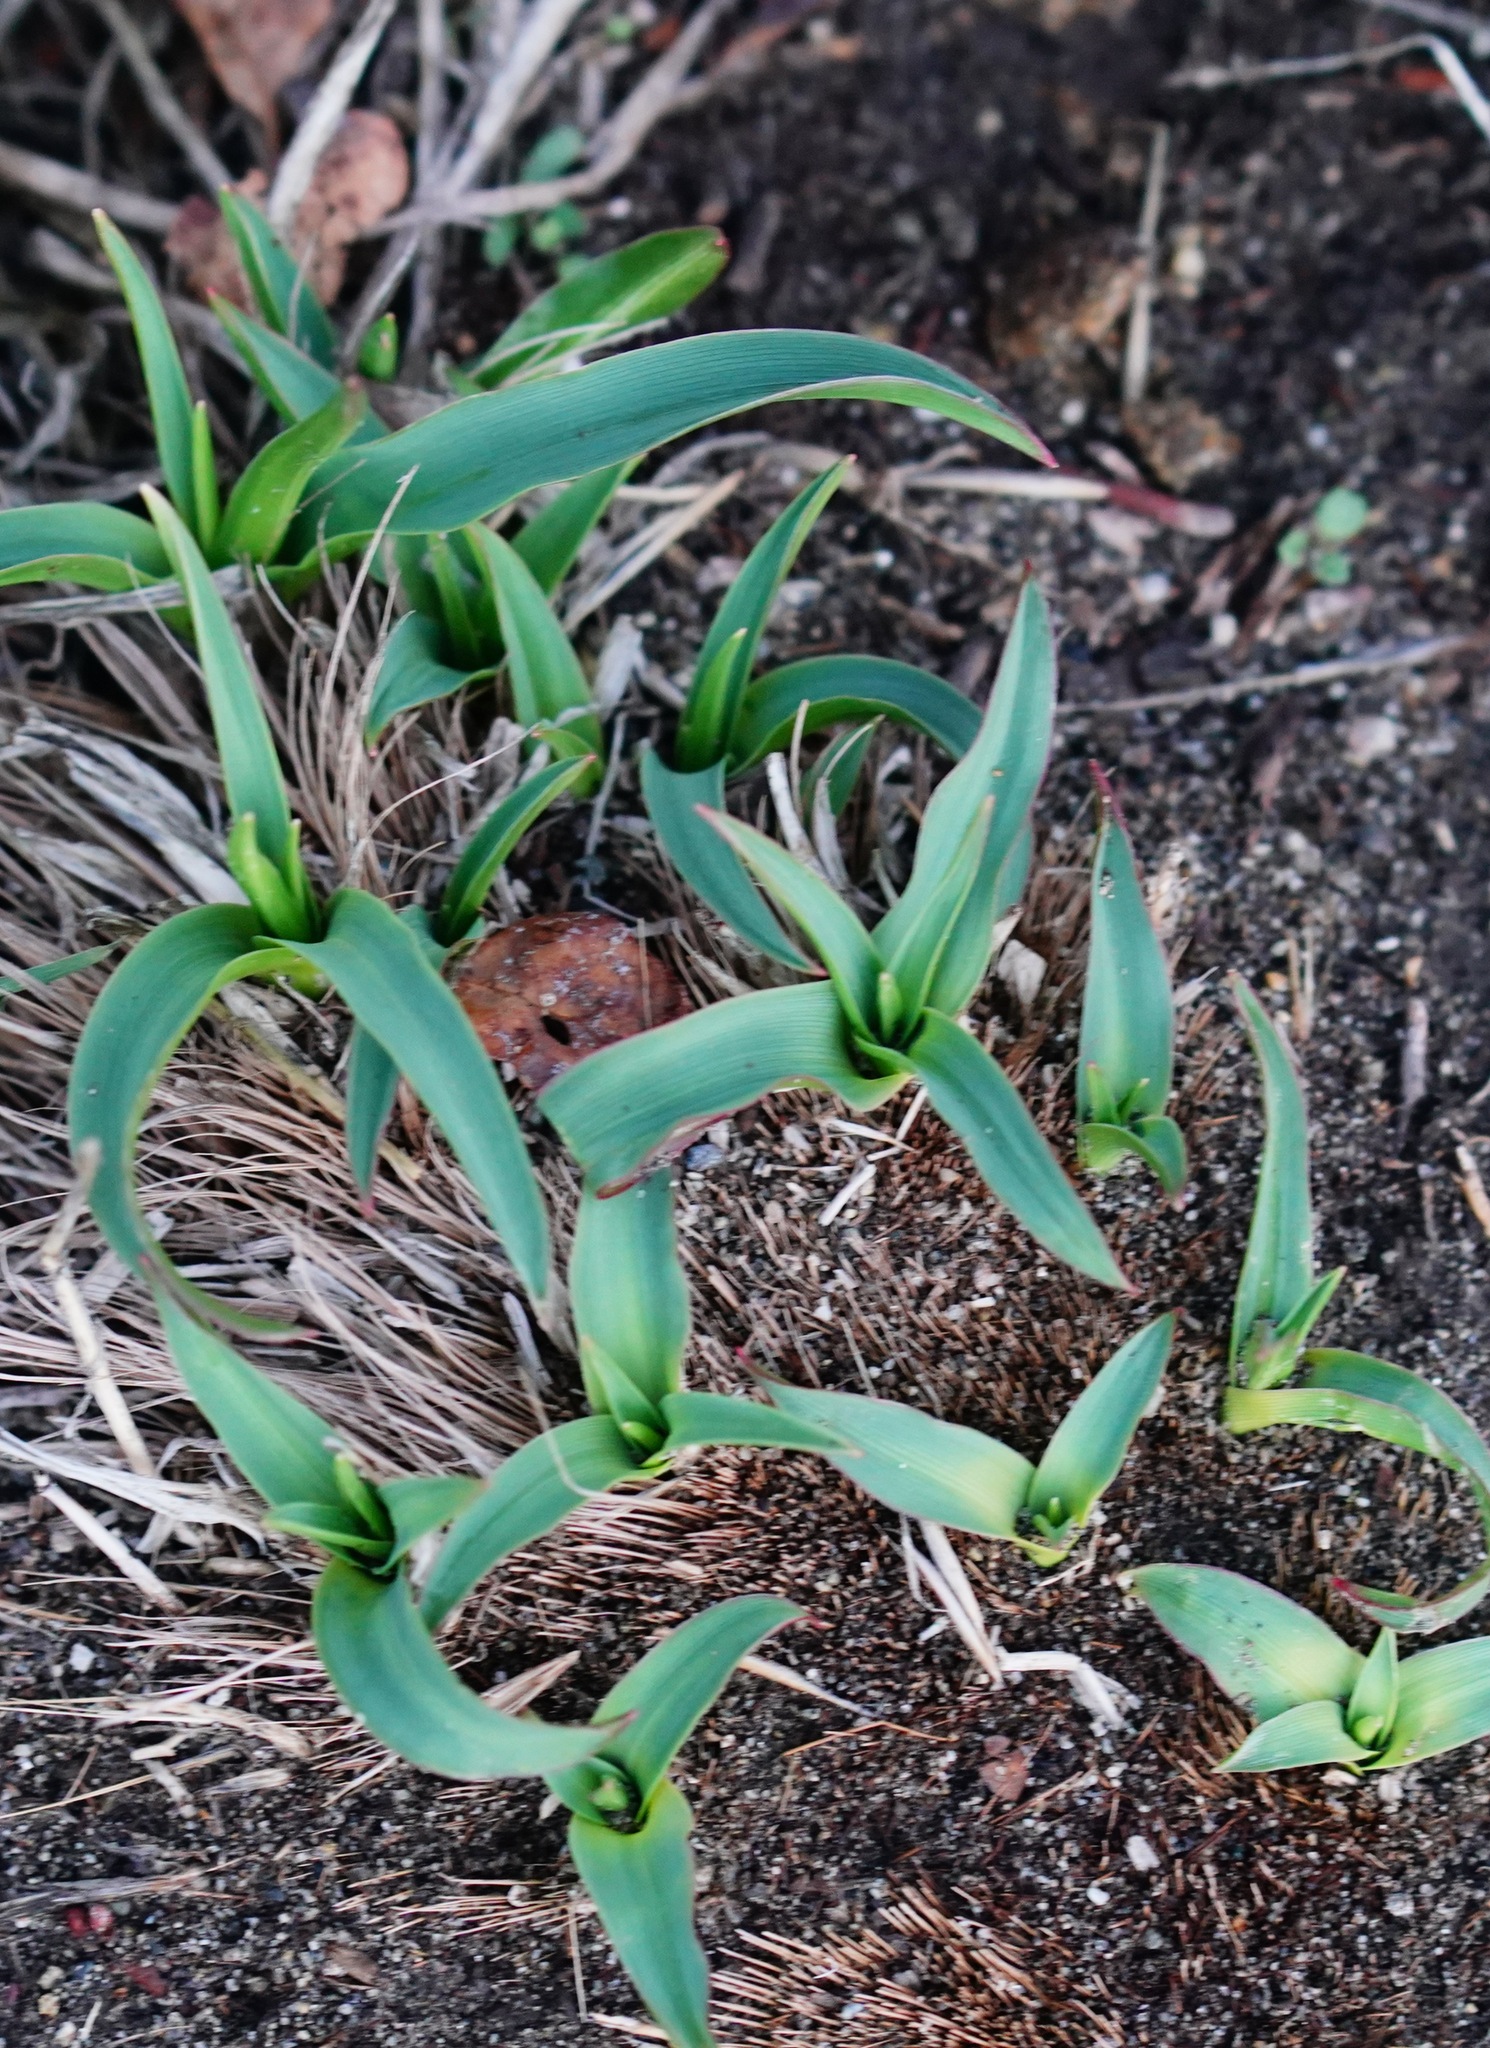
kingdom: Plantae
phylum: Tracheophyta
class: Liliopsida
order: Asparagales
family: Asparagaceae
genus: Chlorogalum
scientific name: Chlorogalum pomeridianum
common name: Amole
